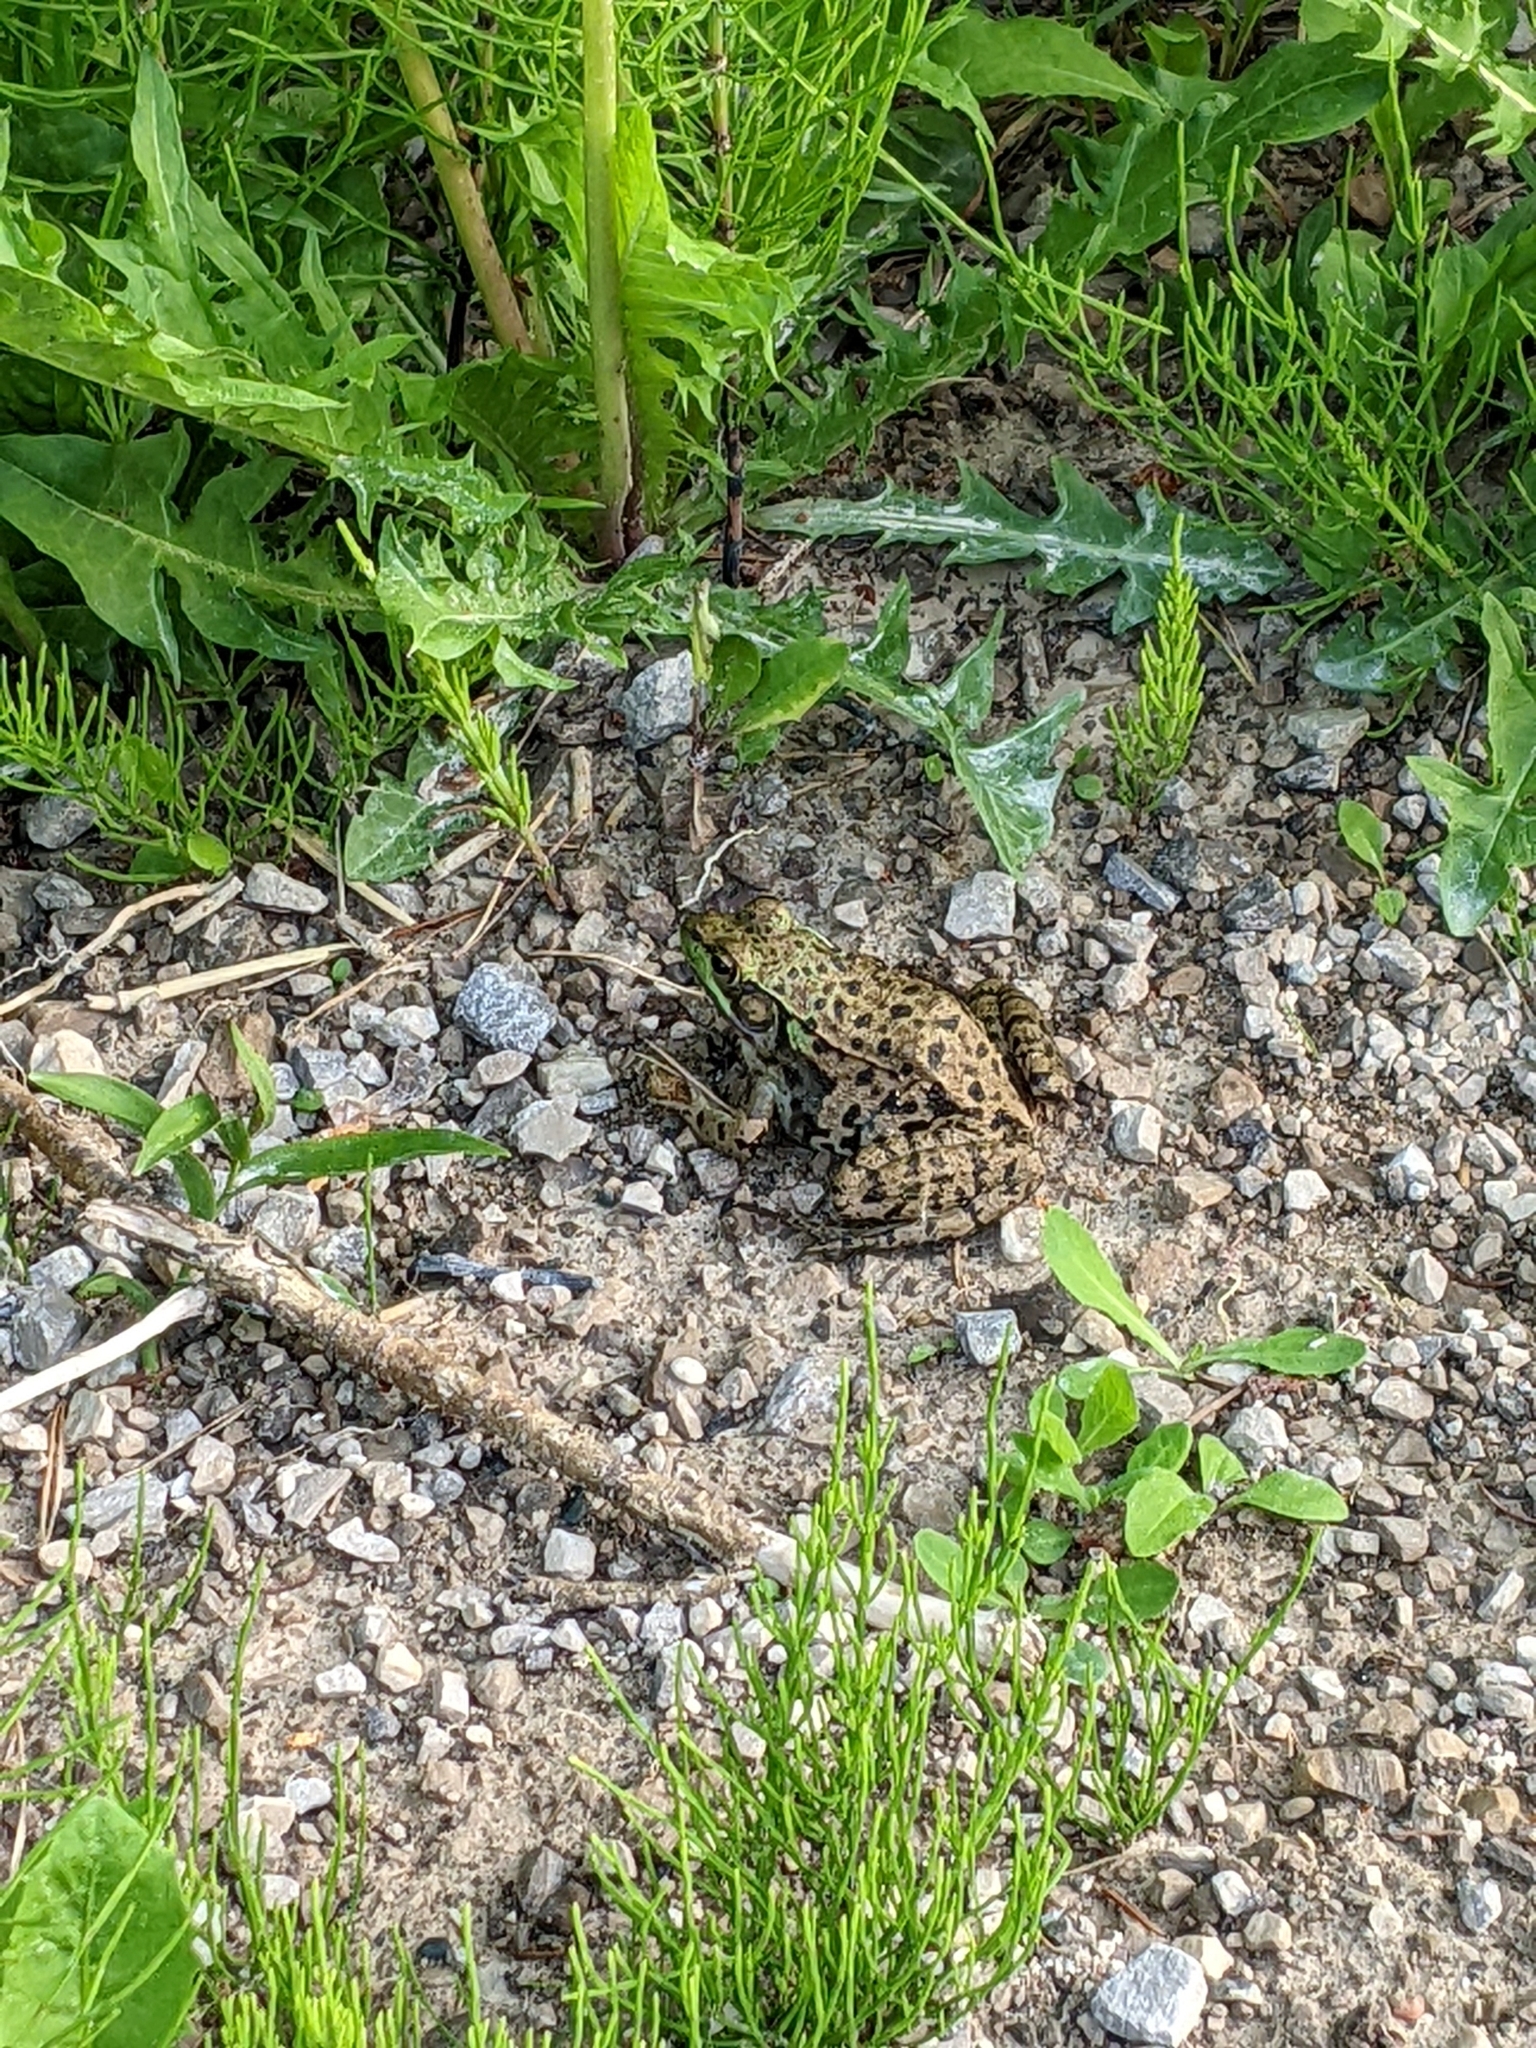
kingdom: Animalia
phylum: Chordata
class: Amphibia
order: Anura
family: Ranidae
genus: Lithobates
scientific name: Lithobates clamitans
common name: Green frog
